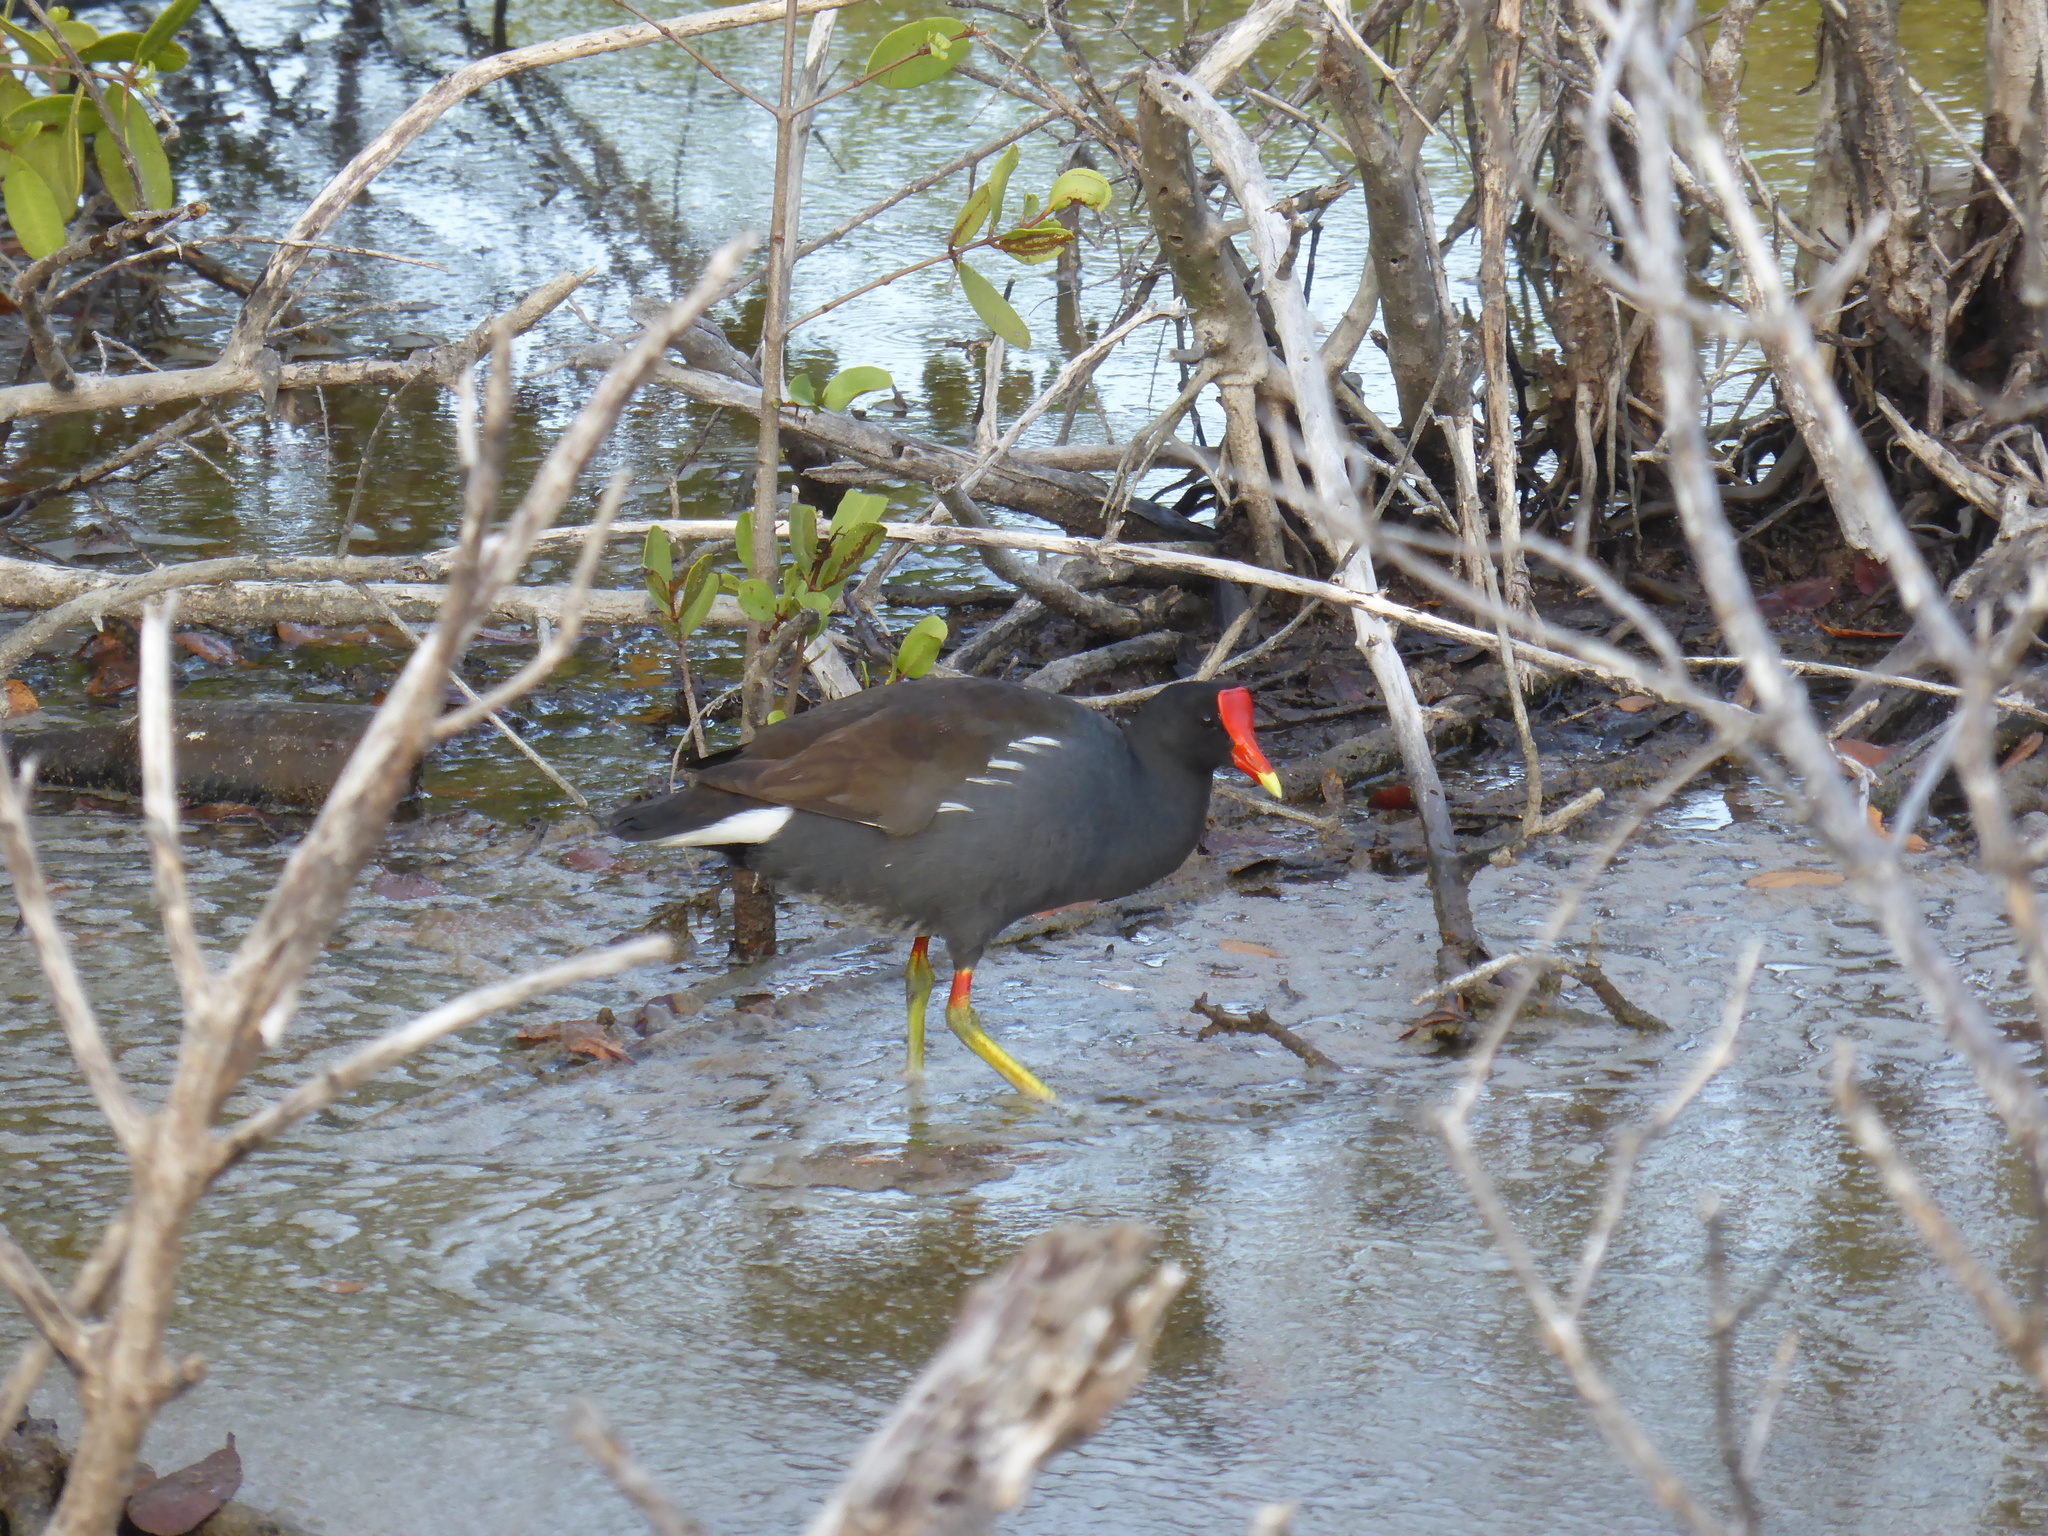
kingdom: Animalia
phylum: Chordata
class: Aves
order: Gruiformes
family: Rallidae
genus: Gallinula
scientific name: Gallinula chloropus
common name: Common moorhen
